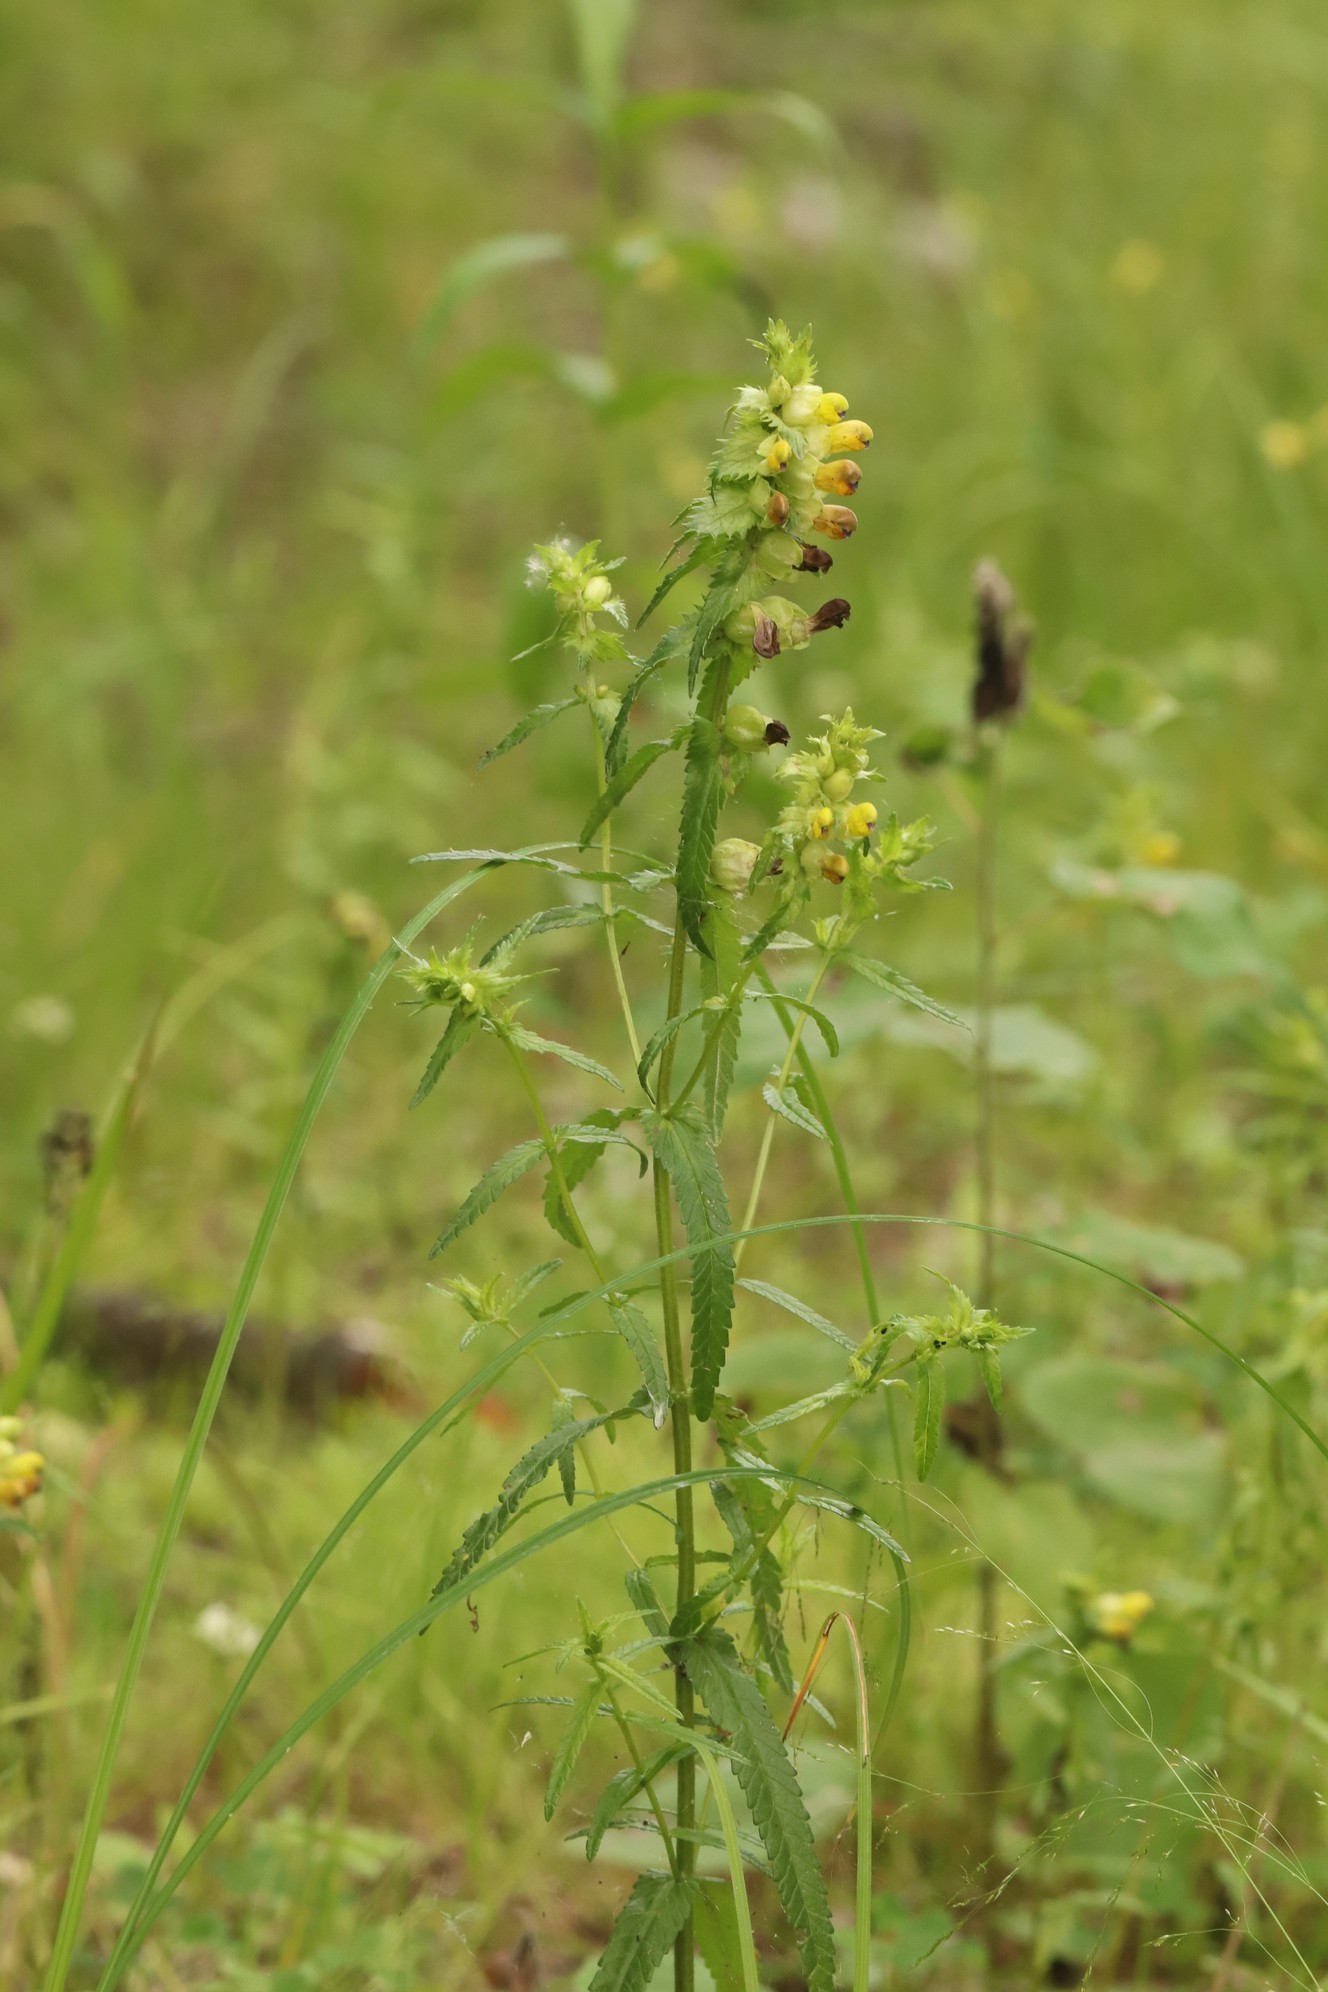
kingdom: Plantae
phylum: Tracheophyta
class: Magnoliopsida
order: Lamiales
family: Orobanchaceae
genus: Rhinanthus
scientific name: Rhinanthus minor
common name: Yellow-rattle
